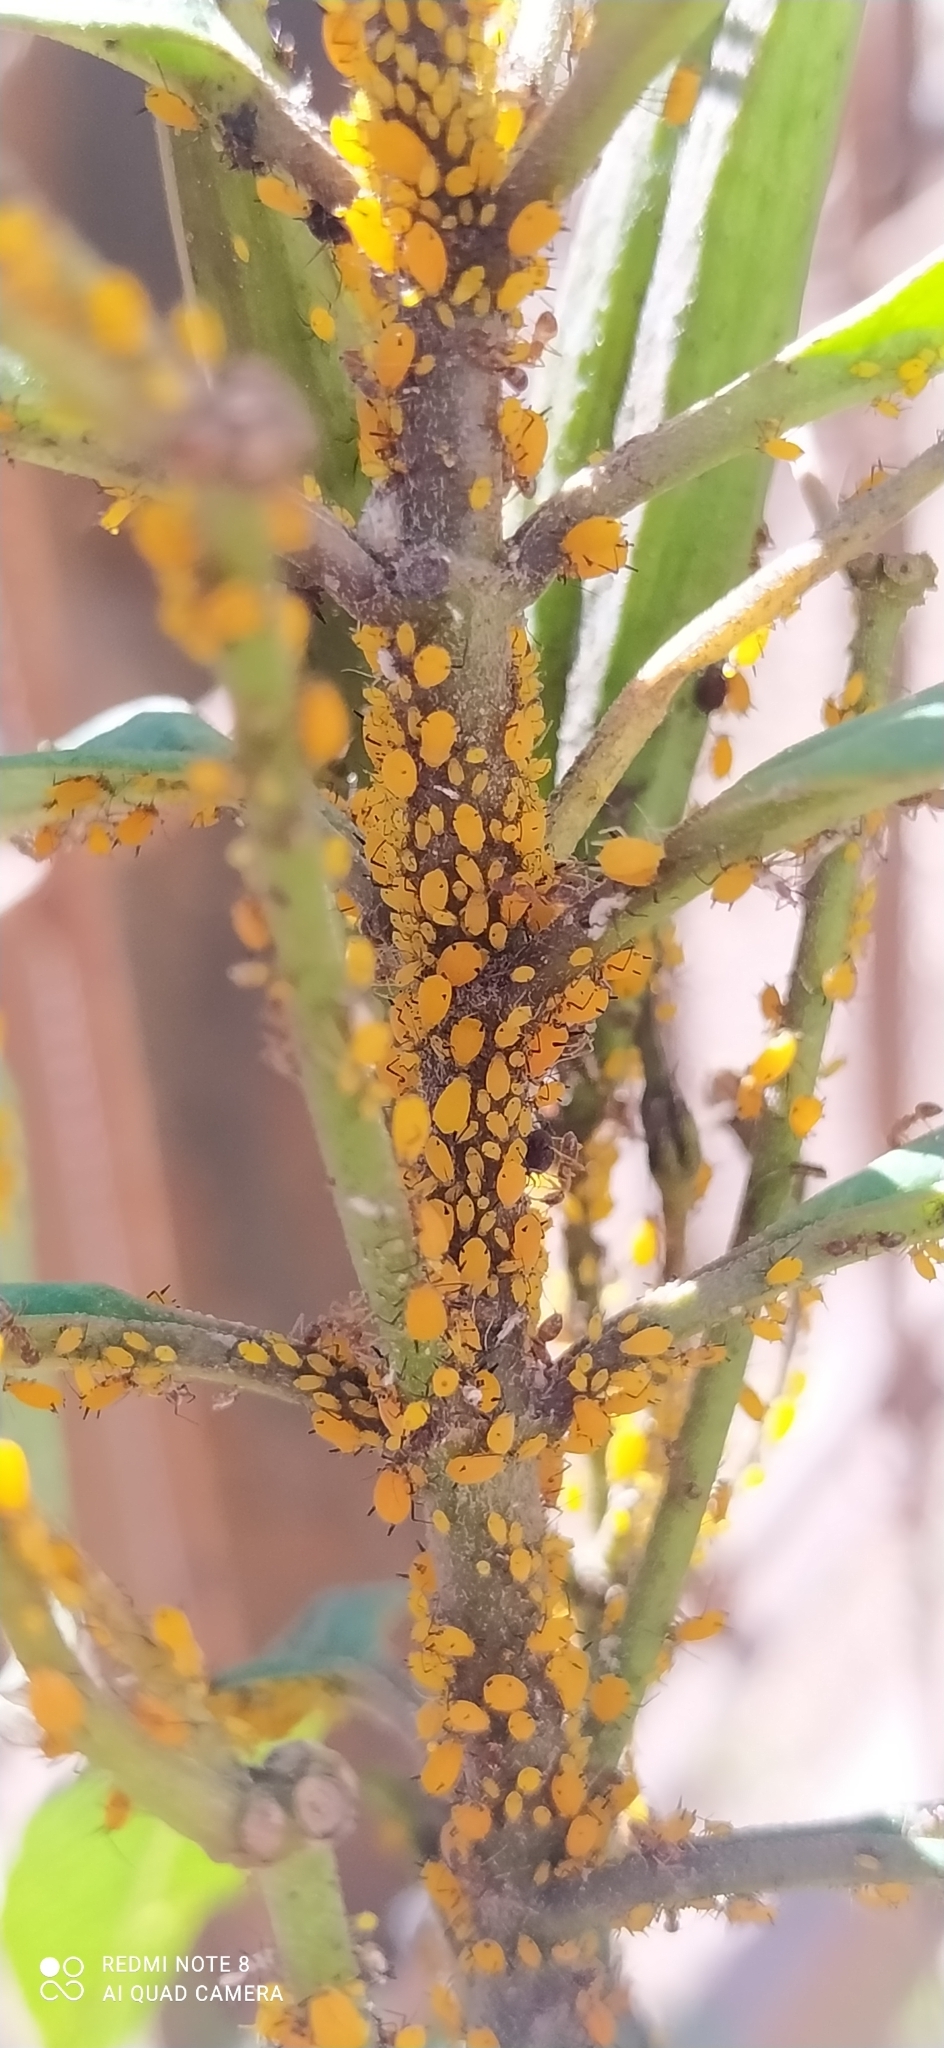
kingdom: Animalia
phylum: Arthropoda
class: Insecta
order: Hemiptera
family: Aphididae
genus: Aphis
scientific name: Aphis nerii
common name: Oleander aphid
